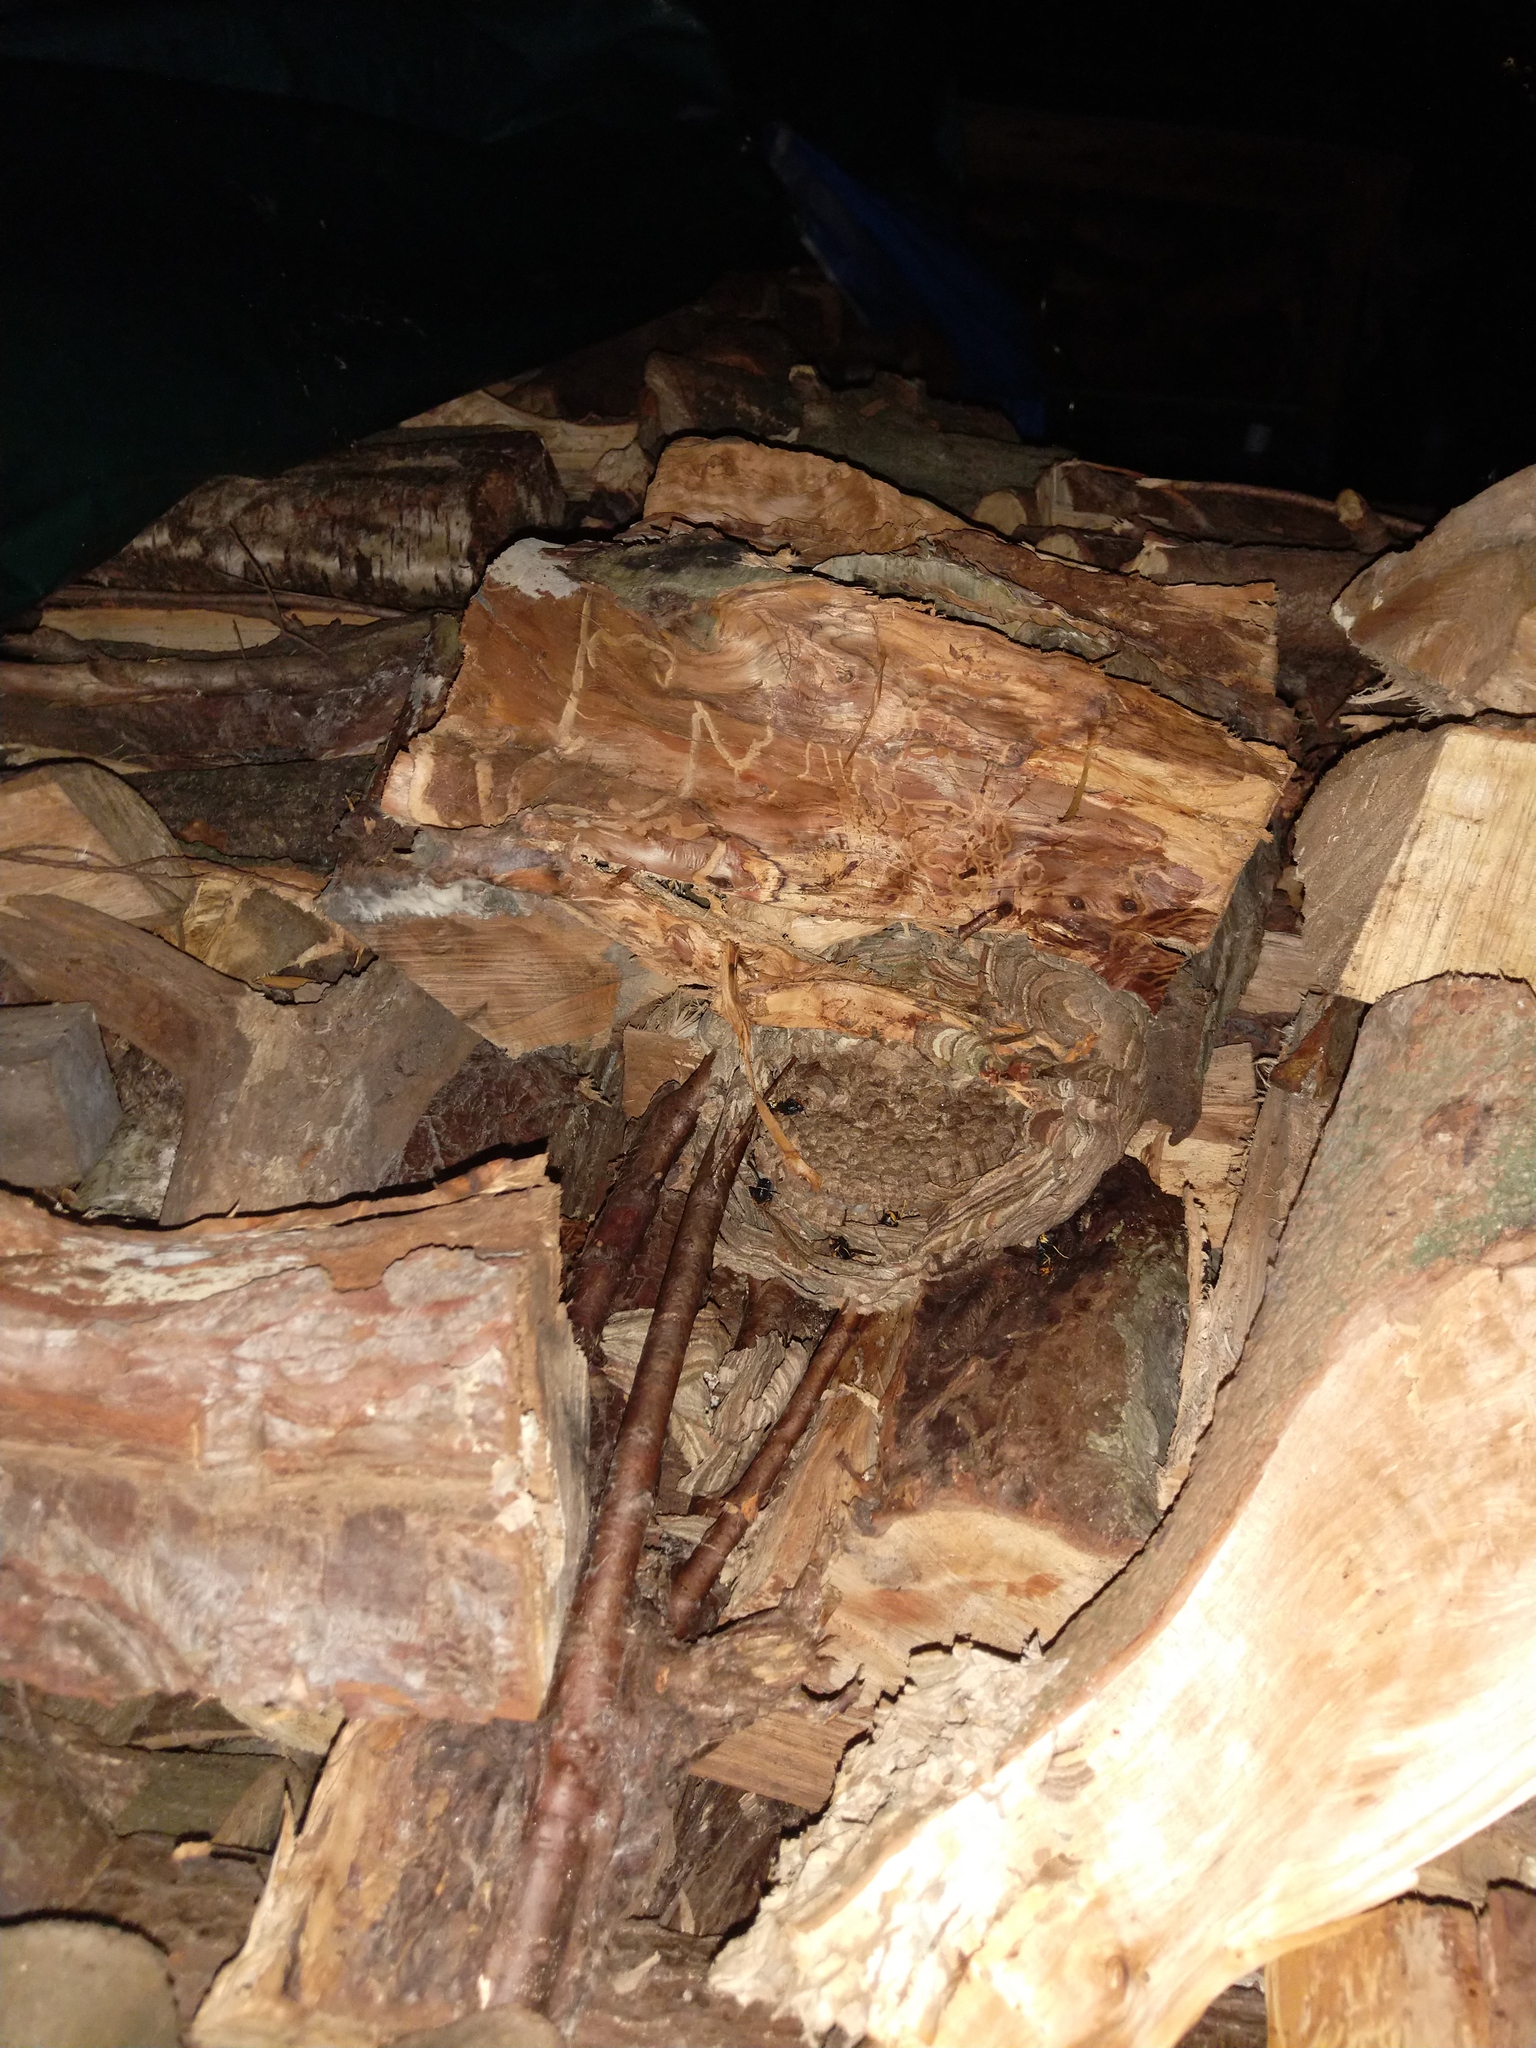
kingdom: Animalia
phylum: Arthropoda
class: Insecta
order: Hymenoptera
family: Vespidae
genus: Vespa
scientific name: Vespa velutina
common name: Asian hornet
